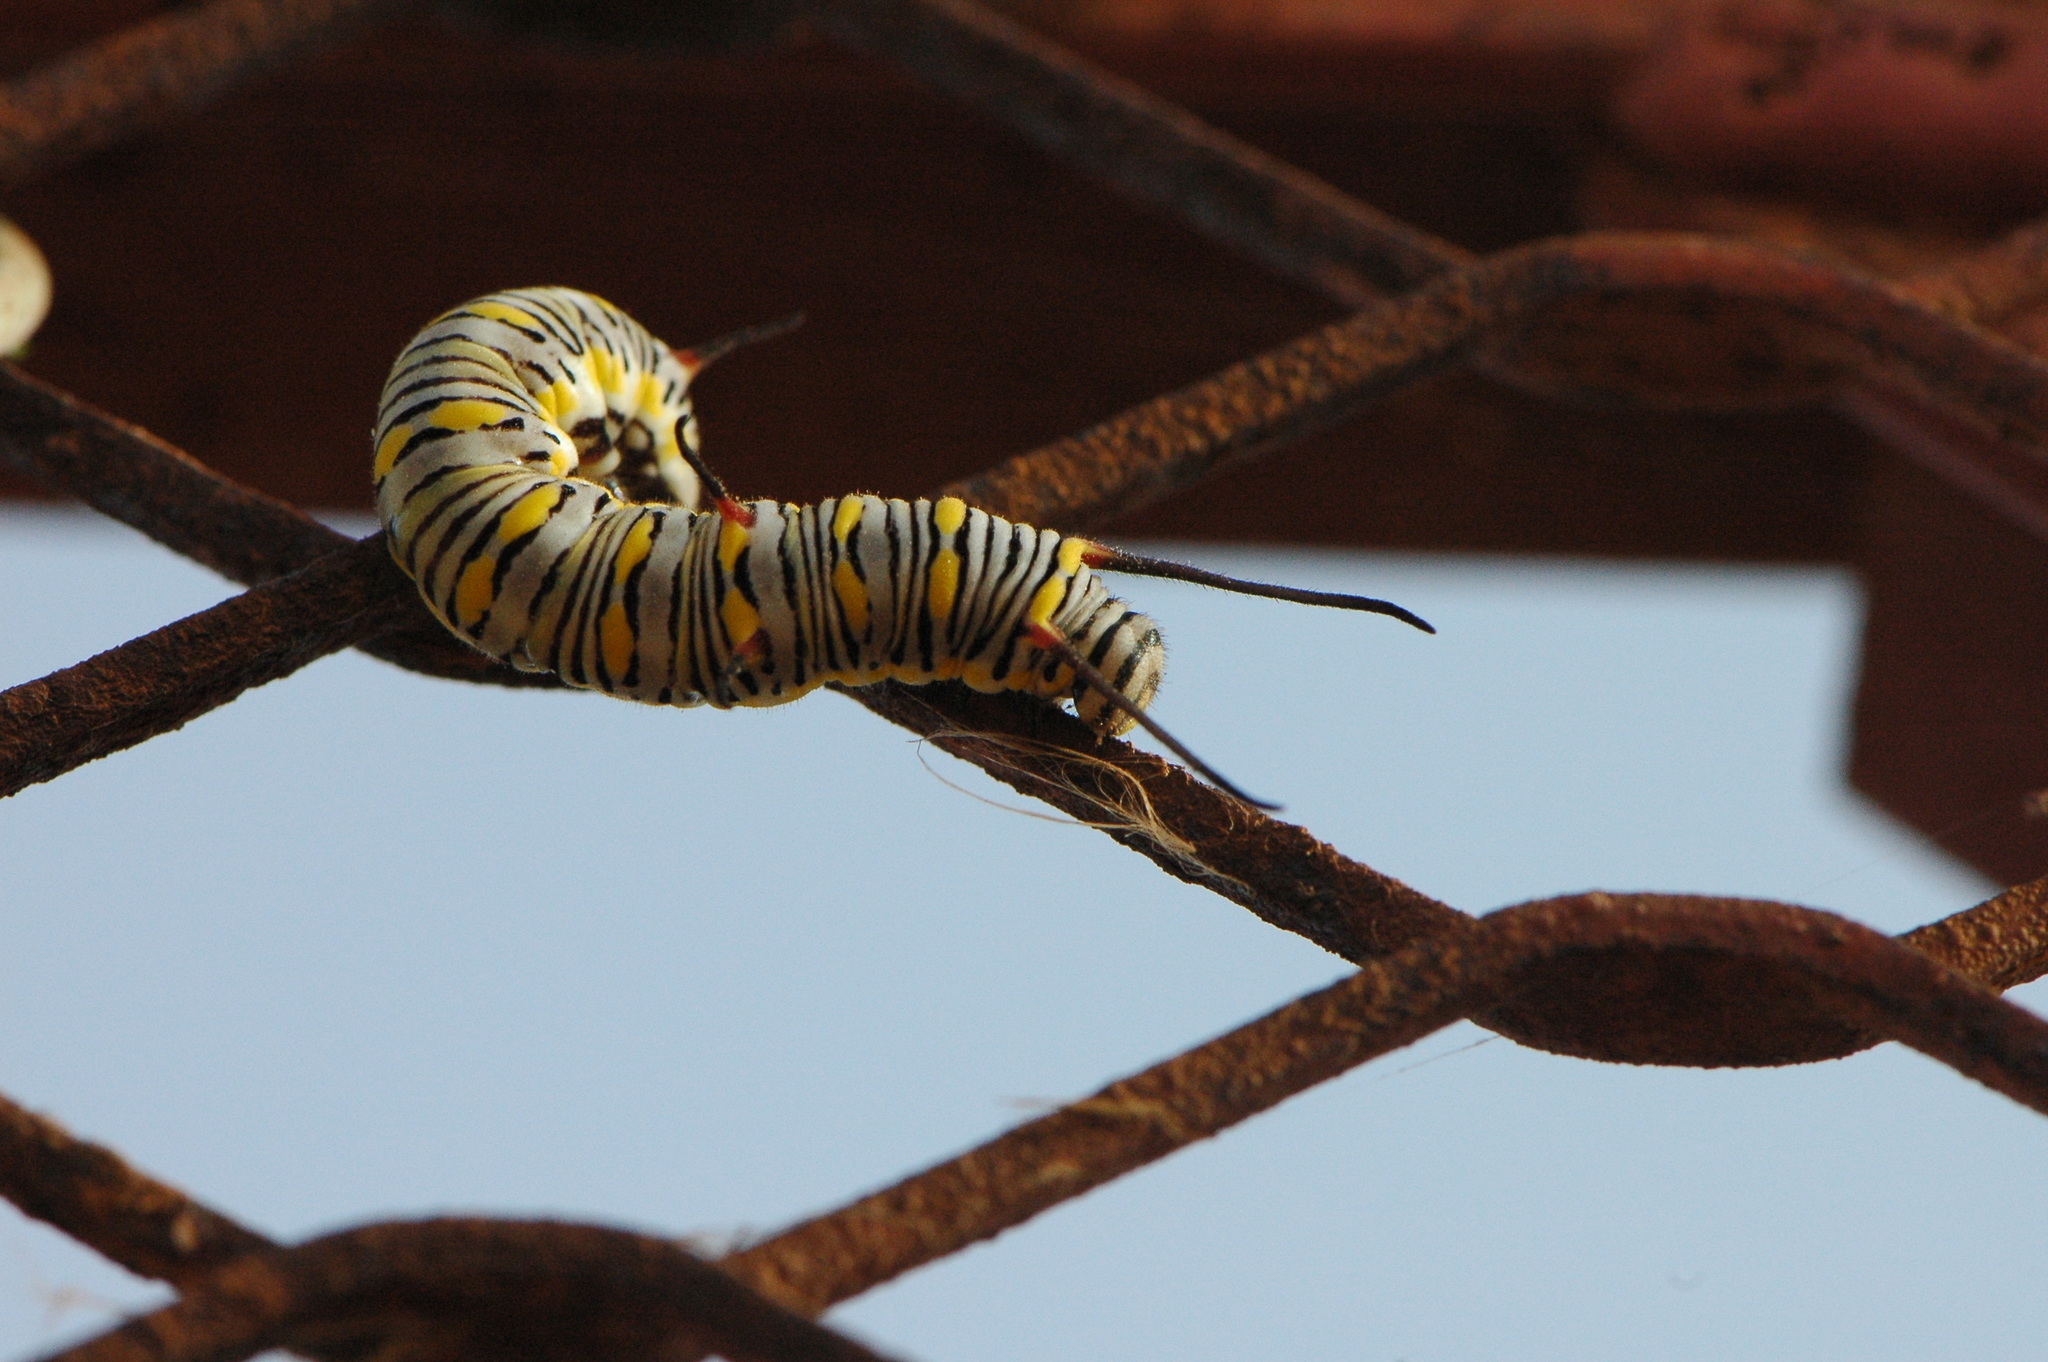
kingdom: Animalia
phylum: Arthropoda
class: Insecta
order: Lepidoptera
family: Nymphalidae
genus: Danaus
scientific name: Danaus chrysippus
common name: Plain tiger
